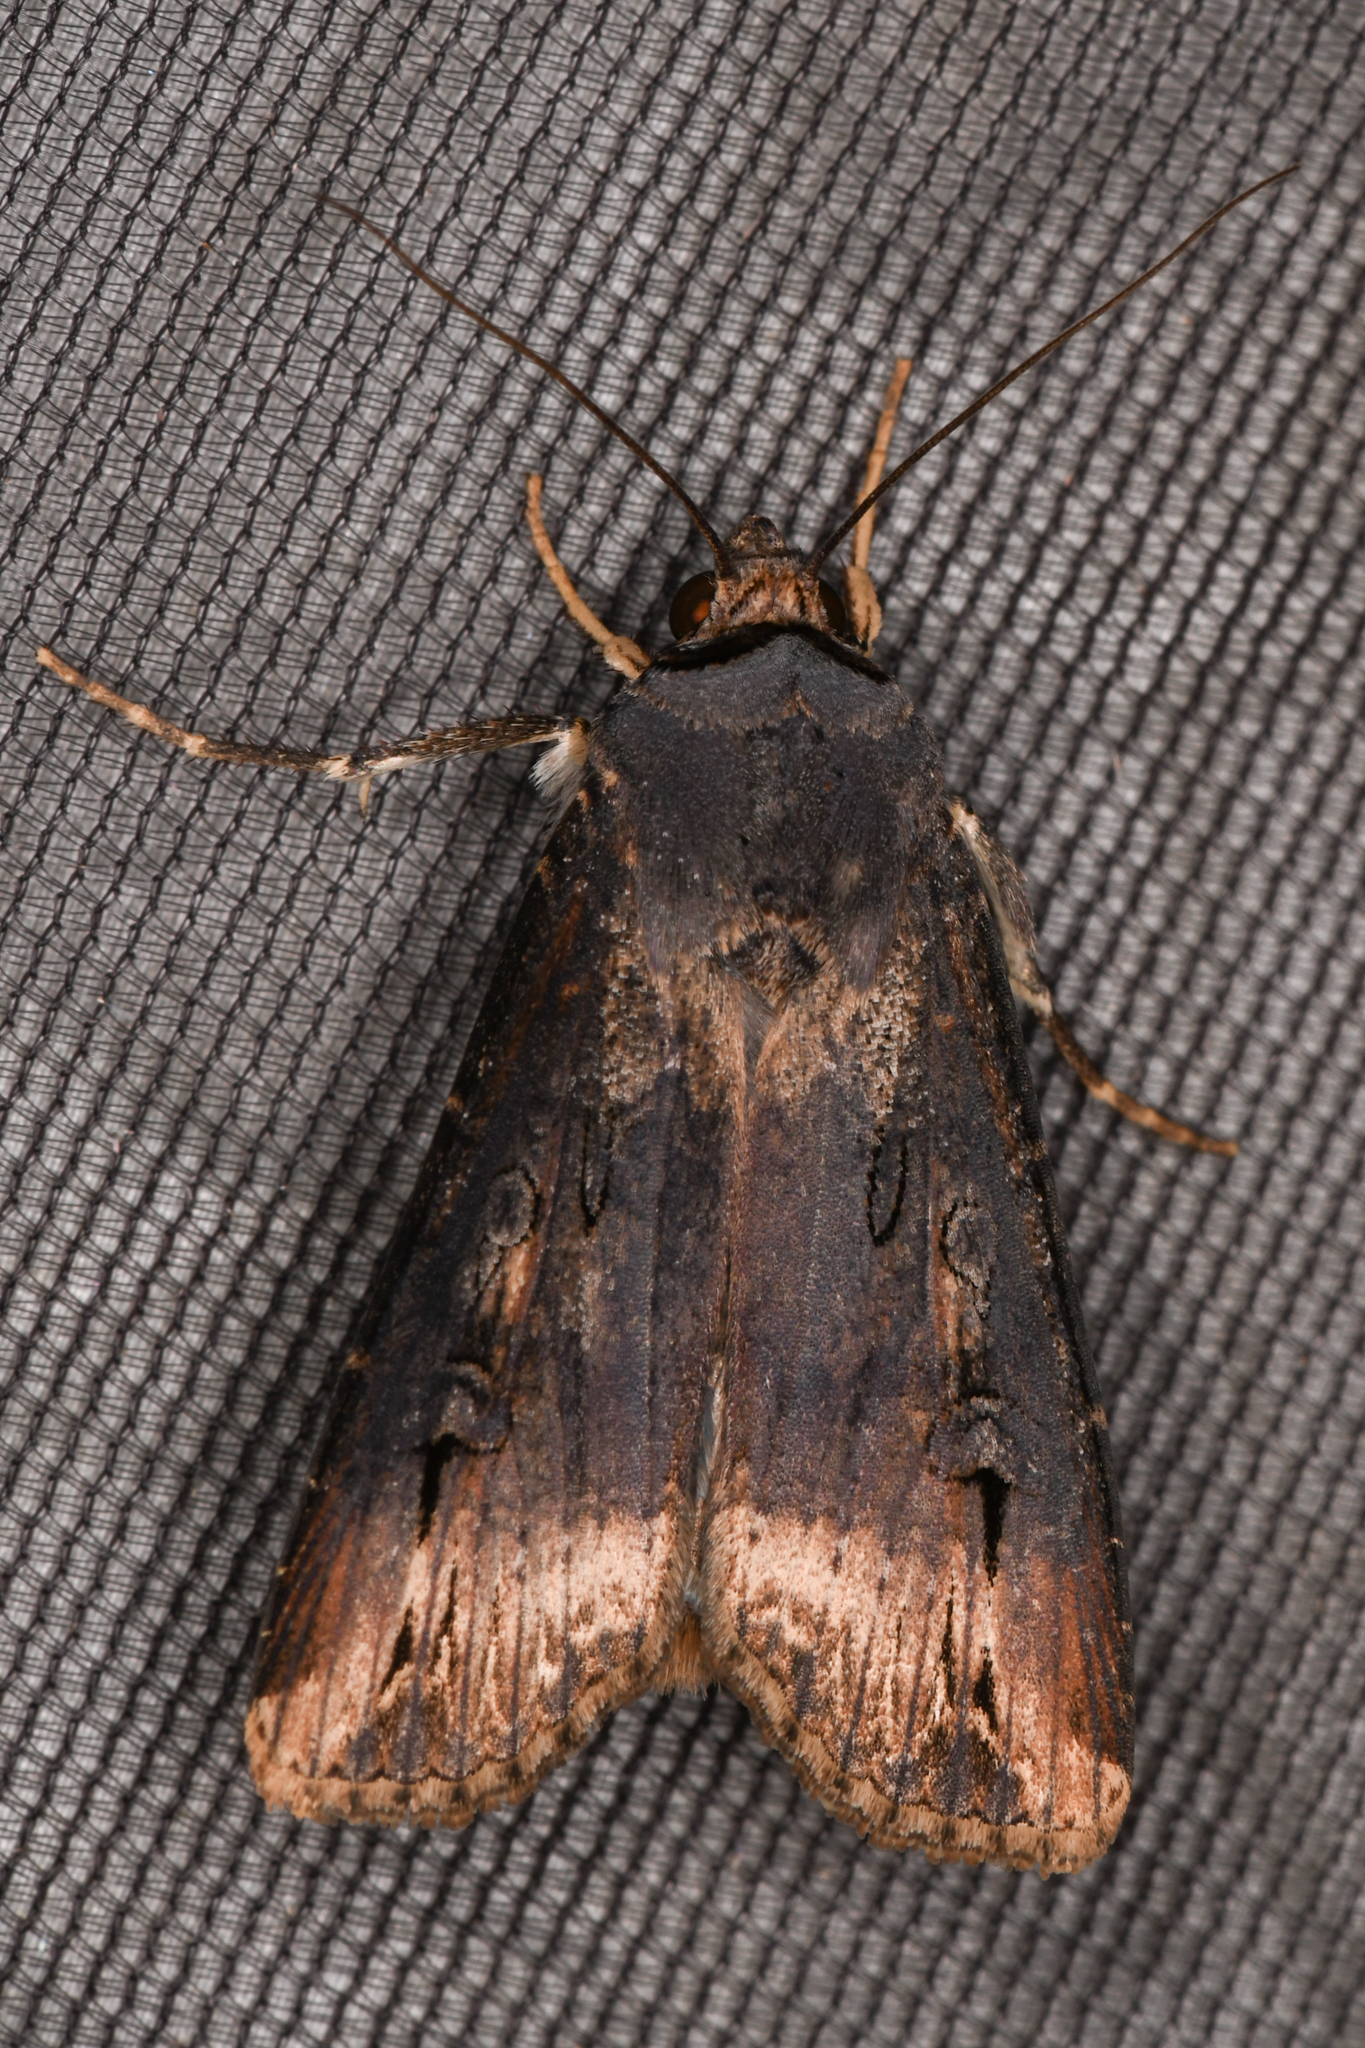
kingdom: Animalia
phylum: Arthropoda
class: Insecta
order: Lepidoptera
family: Noctuidae
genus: Agrotis
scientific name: Agrotis ipsilon
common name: Dark sword-grass
